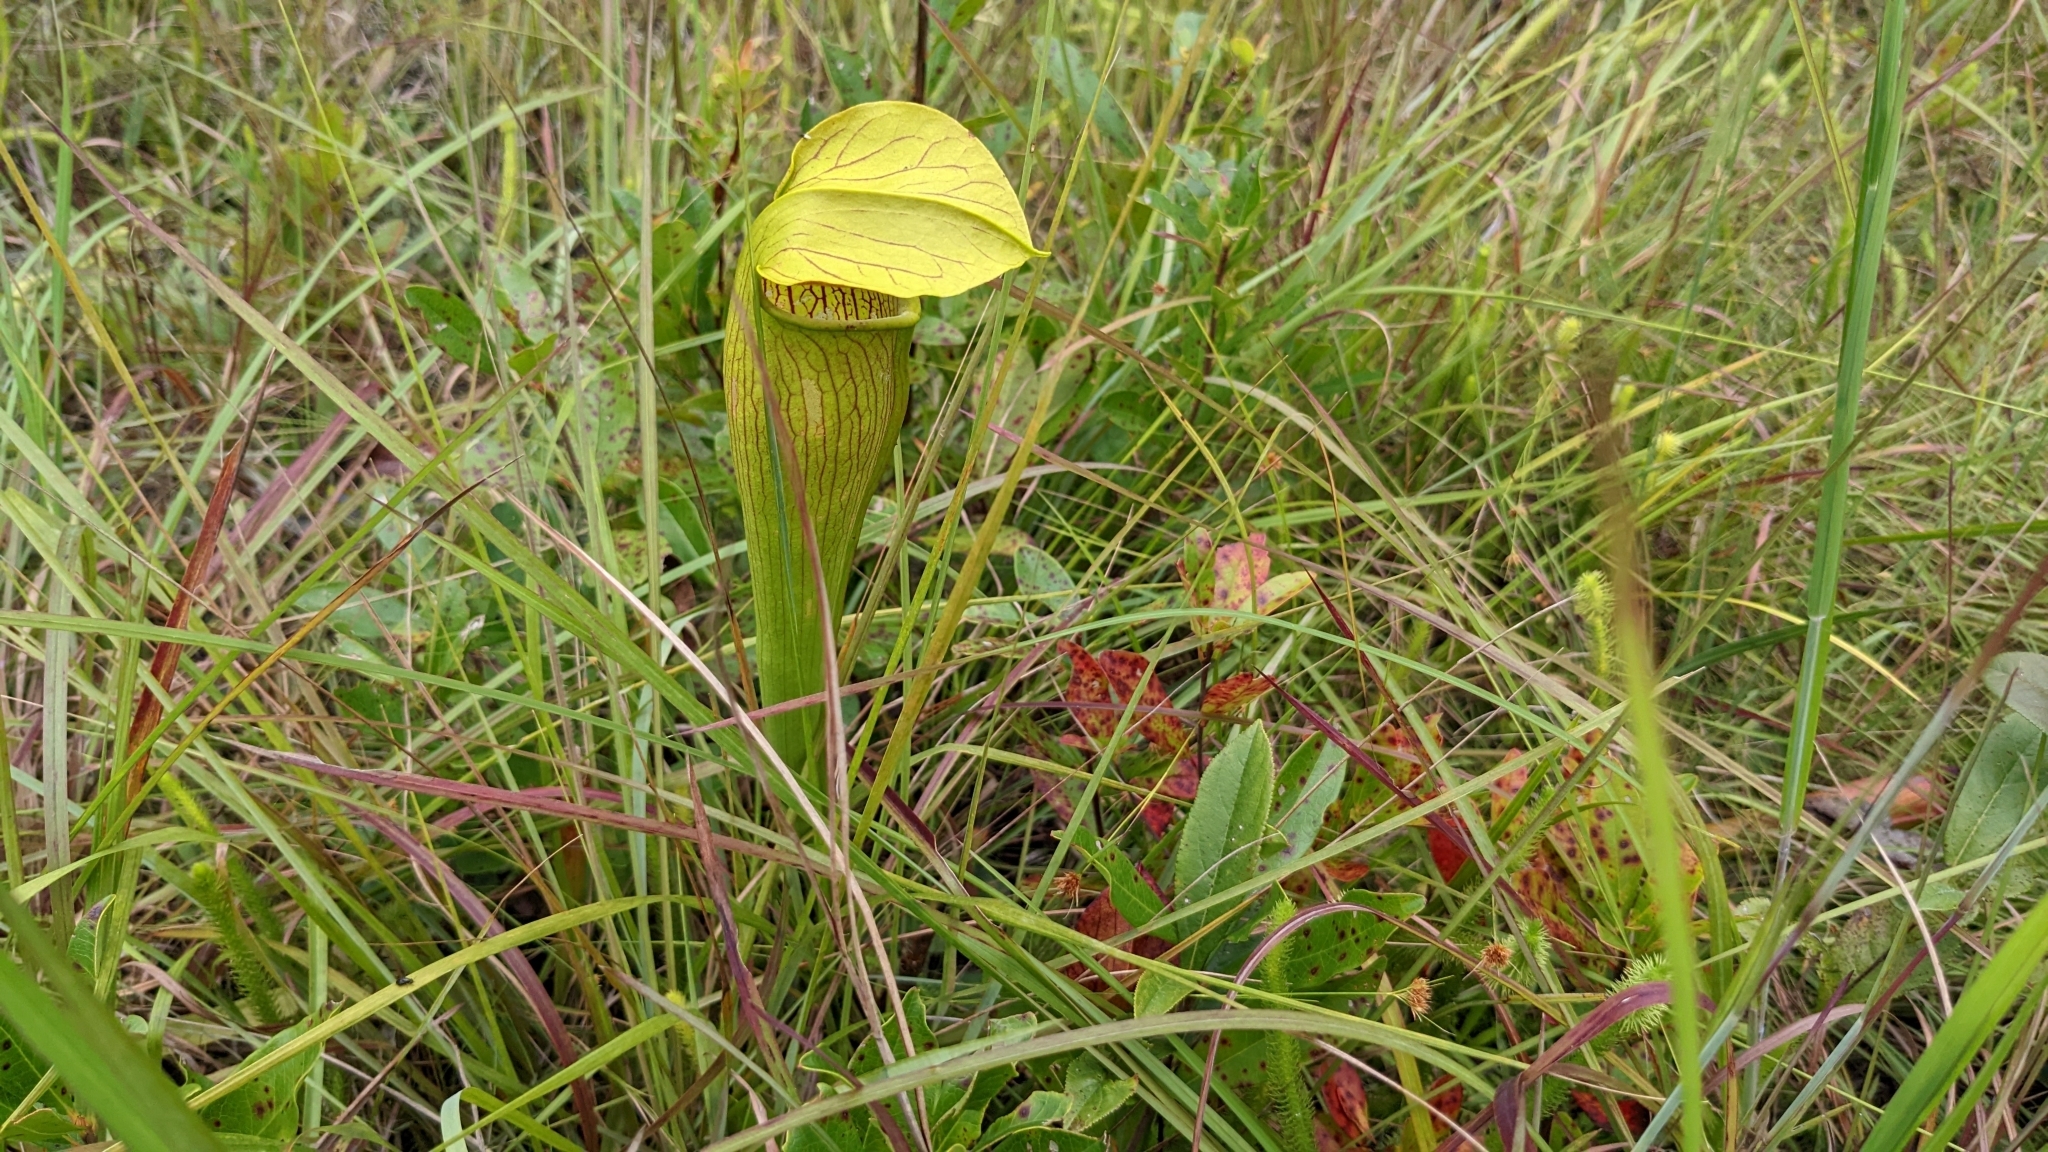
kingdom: Plantae
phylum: Tracheophyta
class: Magnoliopsida
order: Ericales
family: Sarraceniaceae
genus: Sarracenia
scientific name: Sarracenia alata
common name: Yellow trumpets
